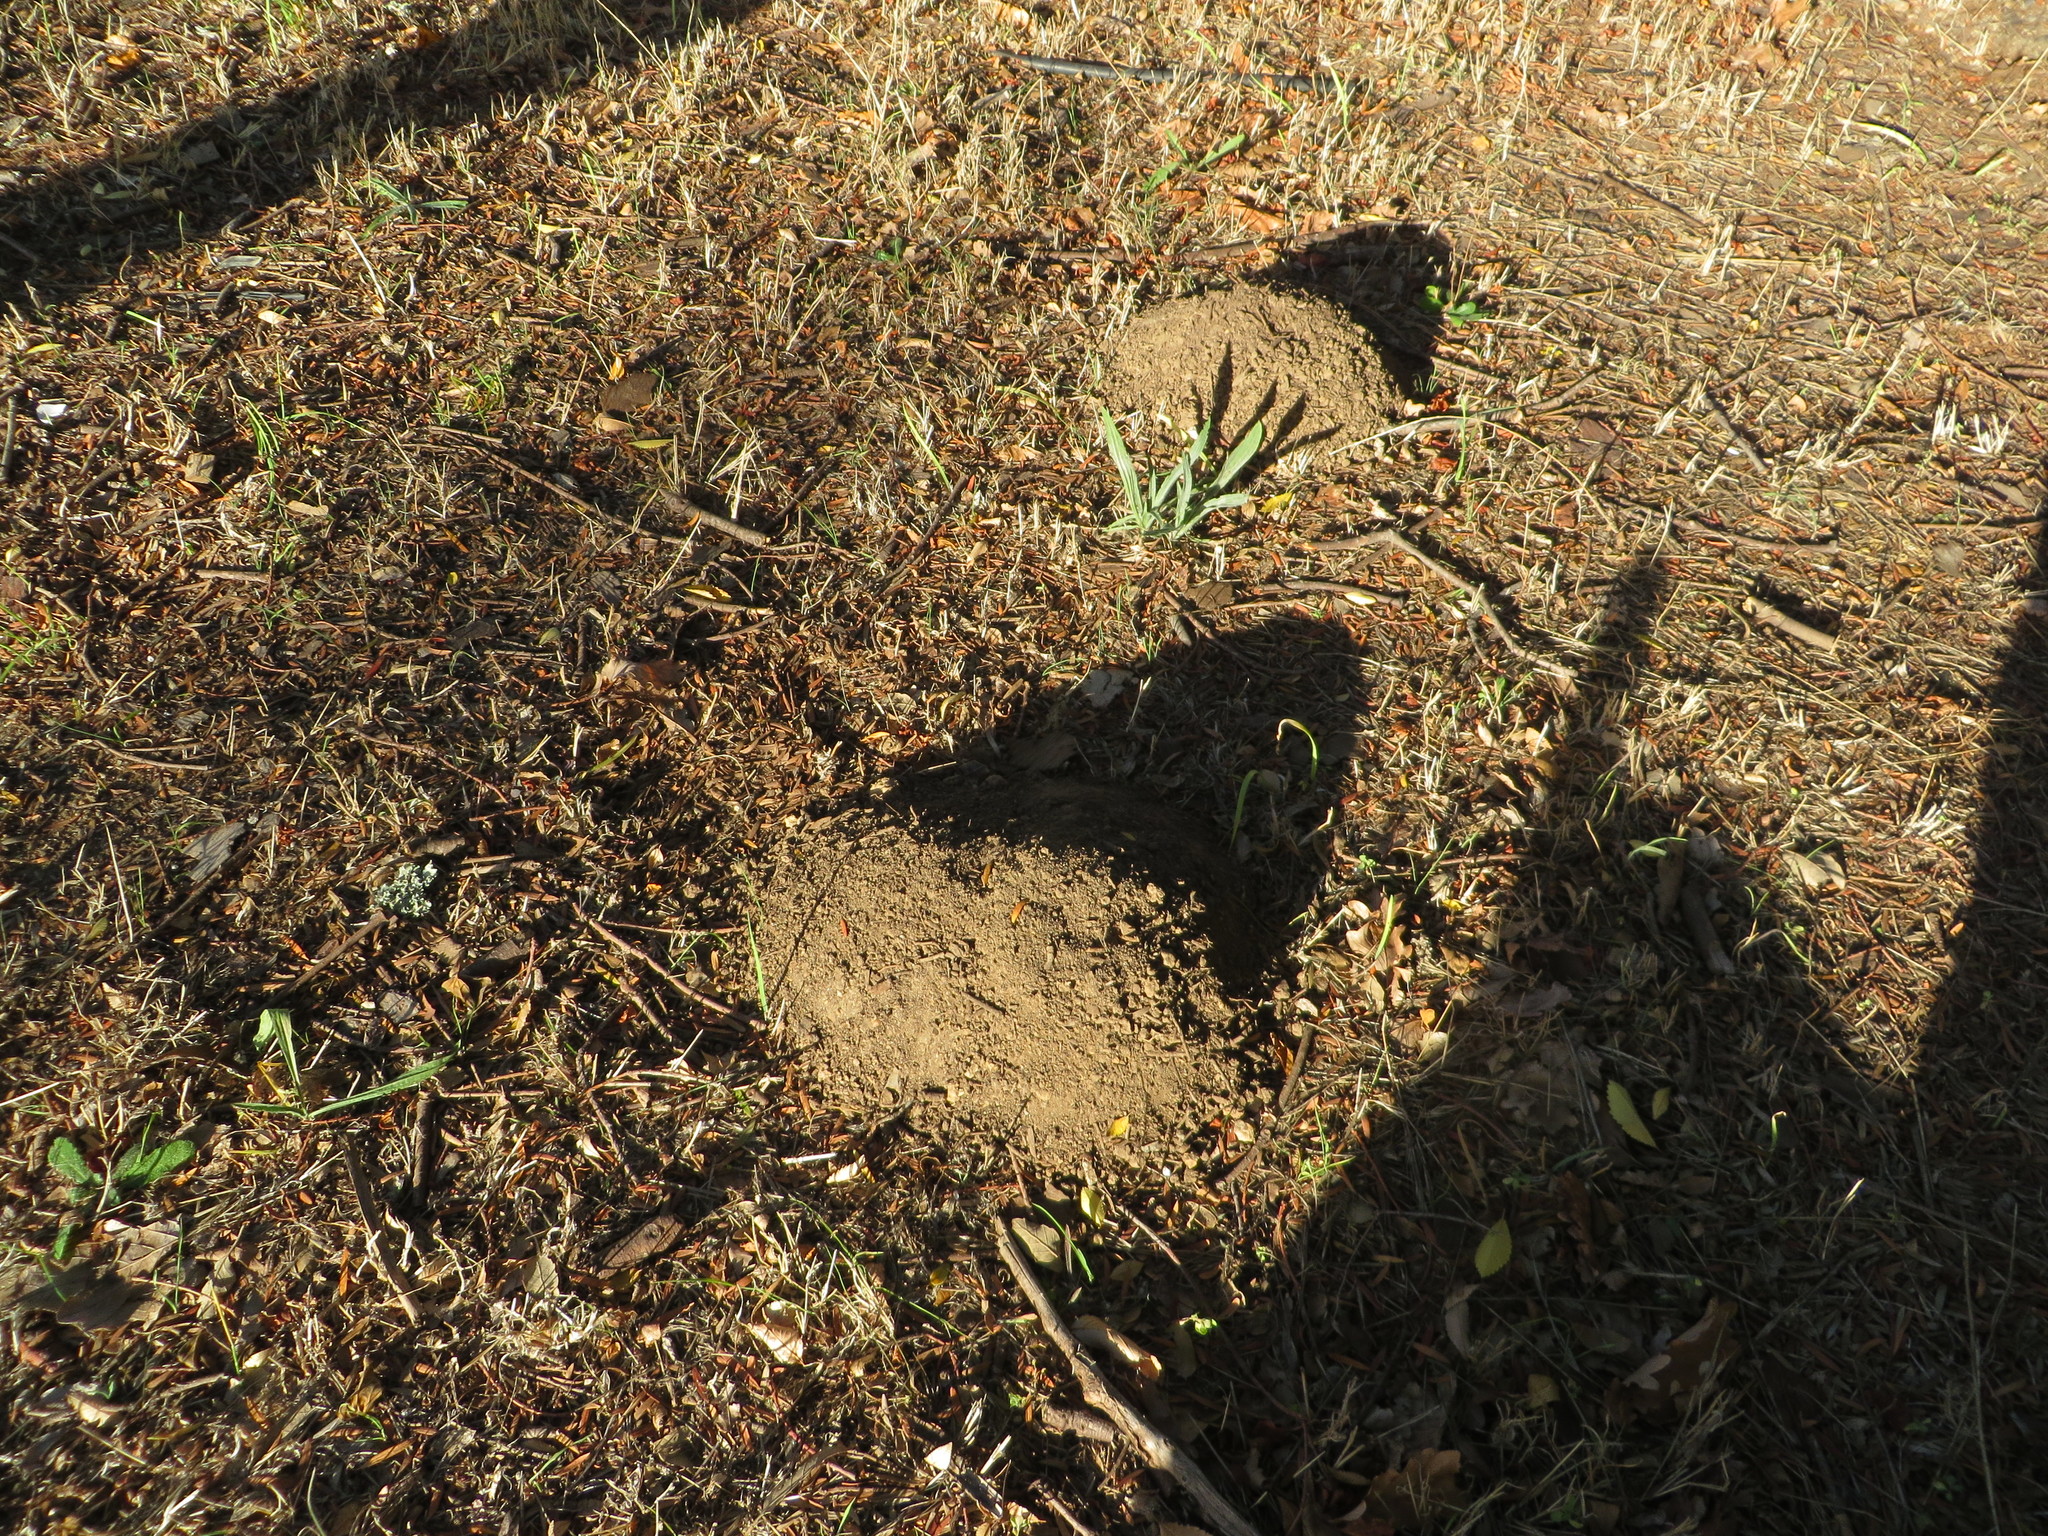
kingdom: Animalia
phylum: Chordata
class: Mammalia
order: Rodentia
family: Bathyergidae
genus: Cryptomys
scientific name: Cryptomys hottentotus
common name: Southern african mole-rat
